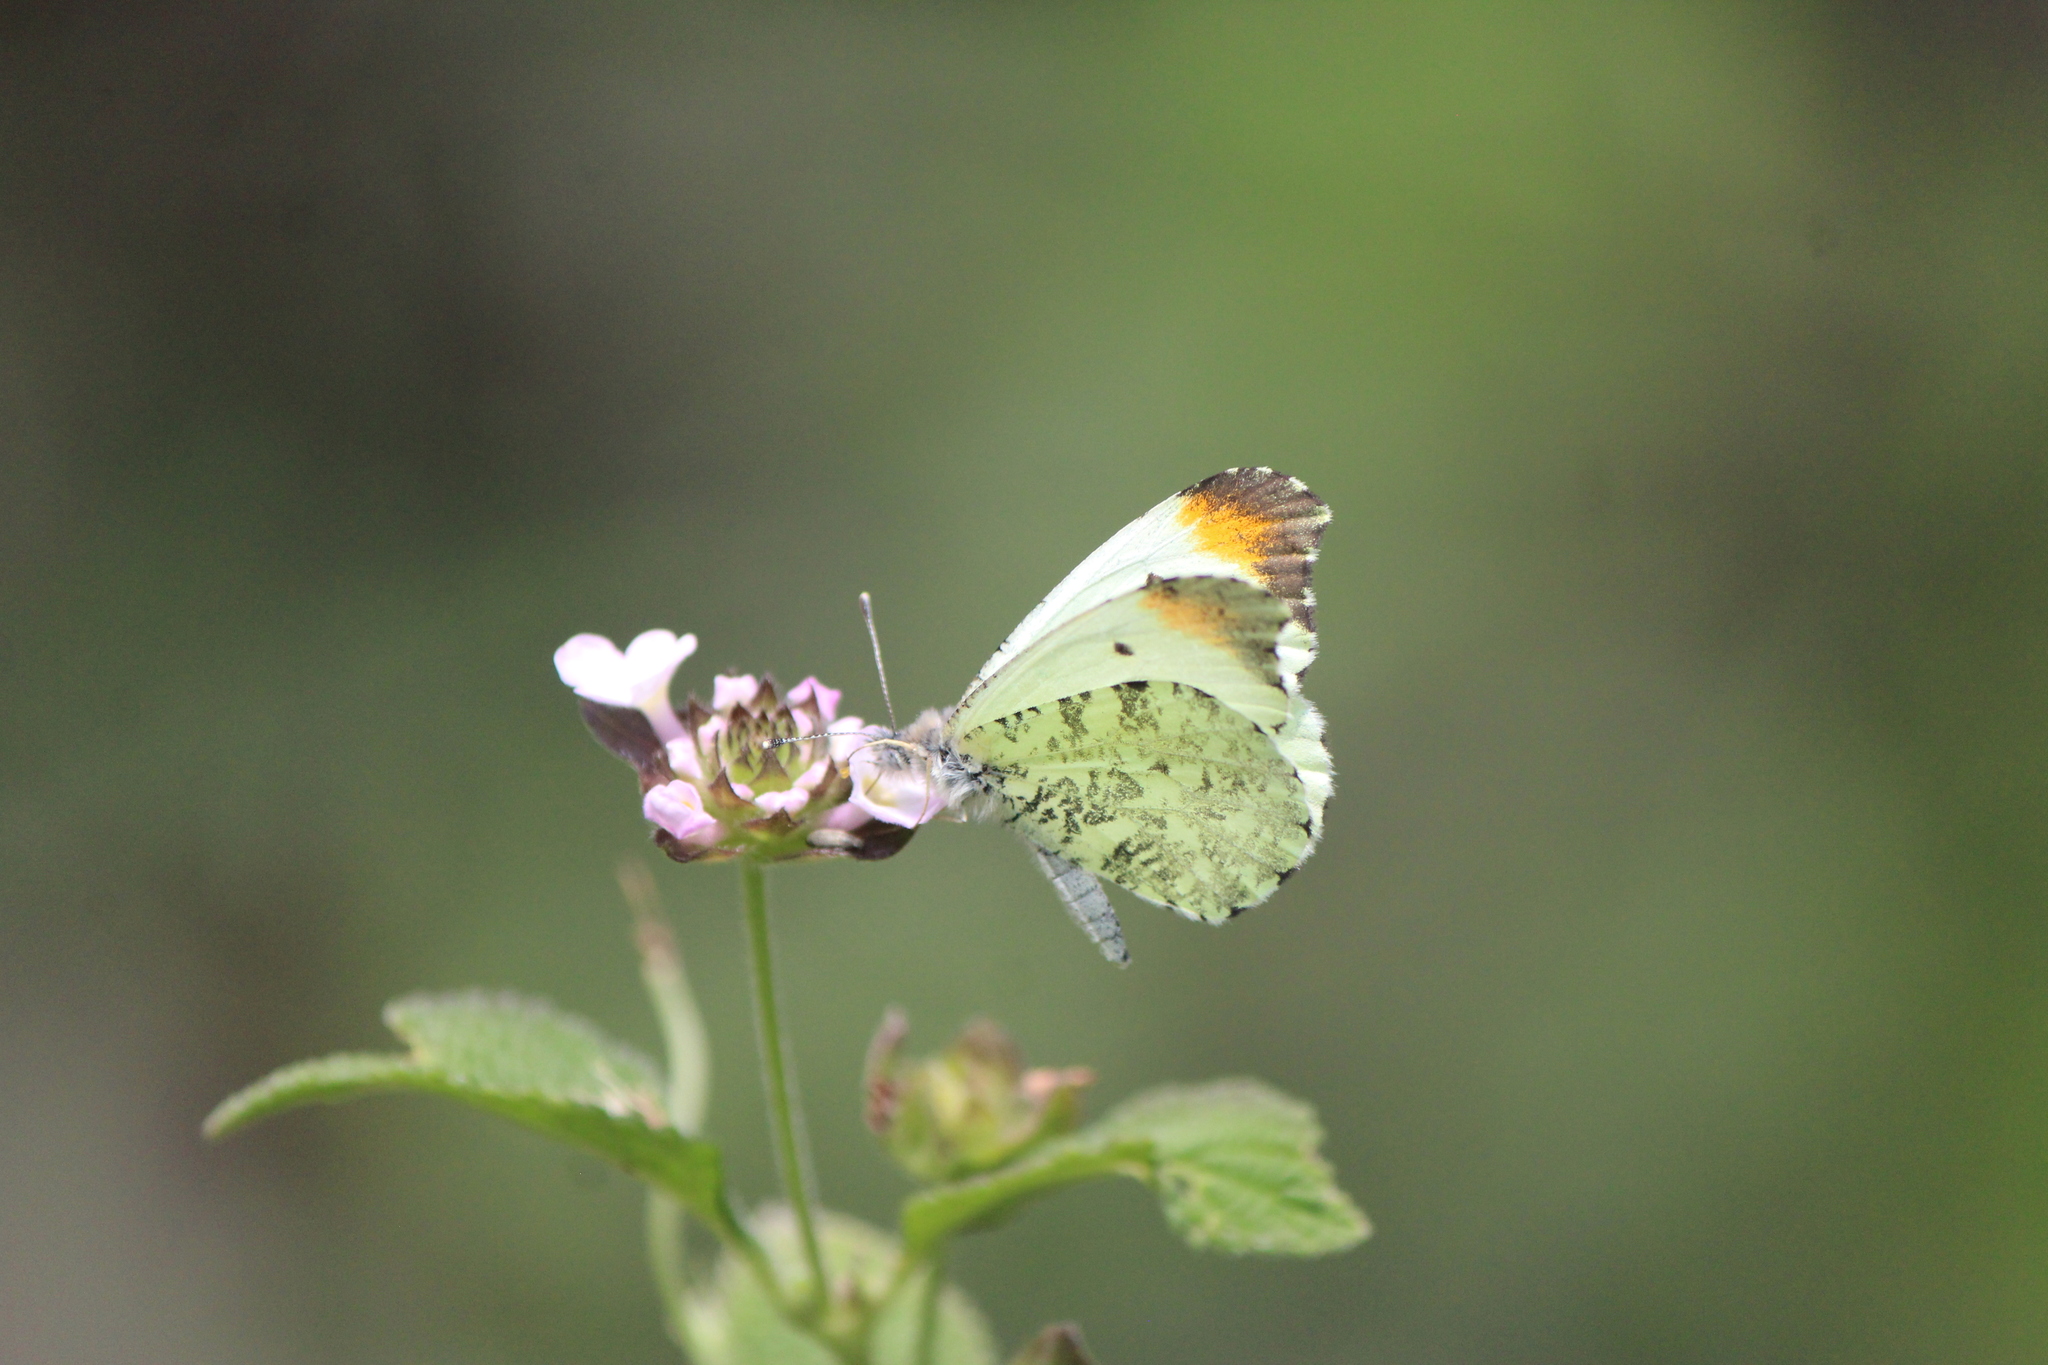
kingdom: Animalia
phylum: Arthropoda
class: Insecta
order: Lepidoptera
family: Pieridae
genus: Anthocharis
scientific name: Anthocharis limonea
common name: Mexican orangetip
